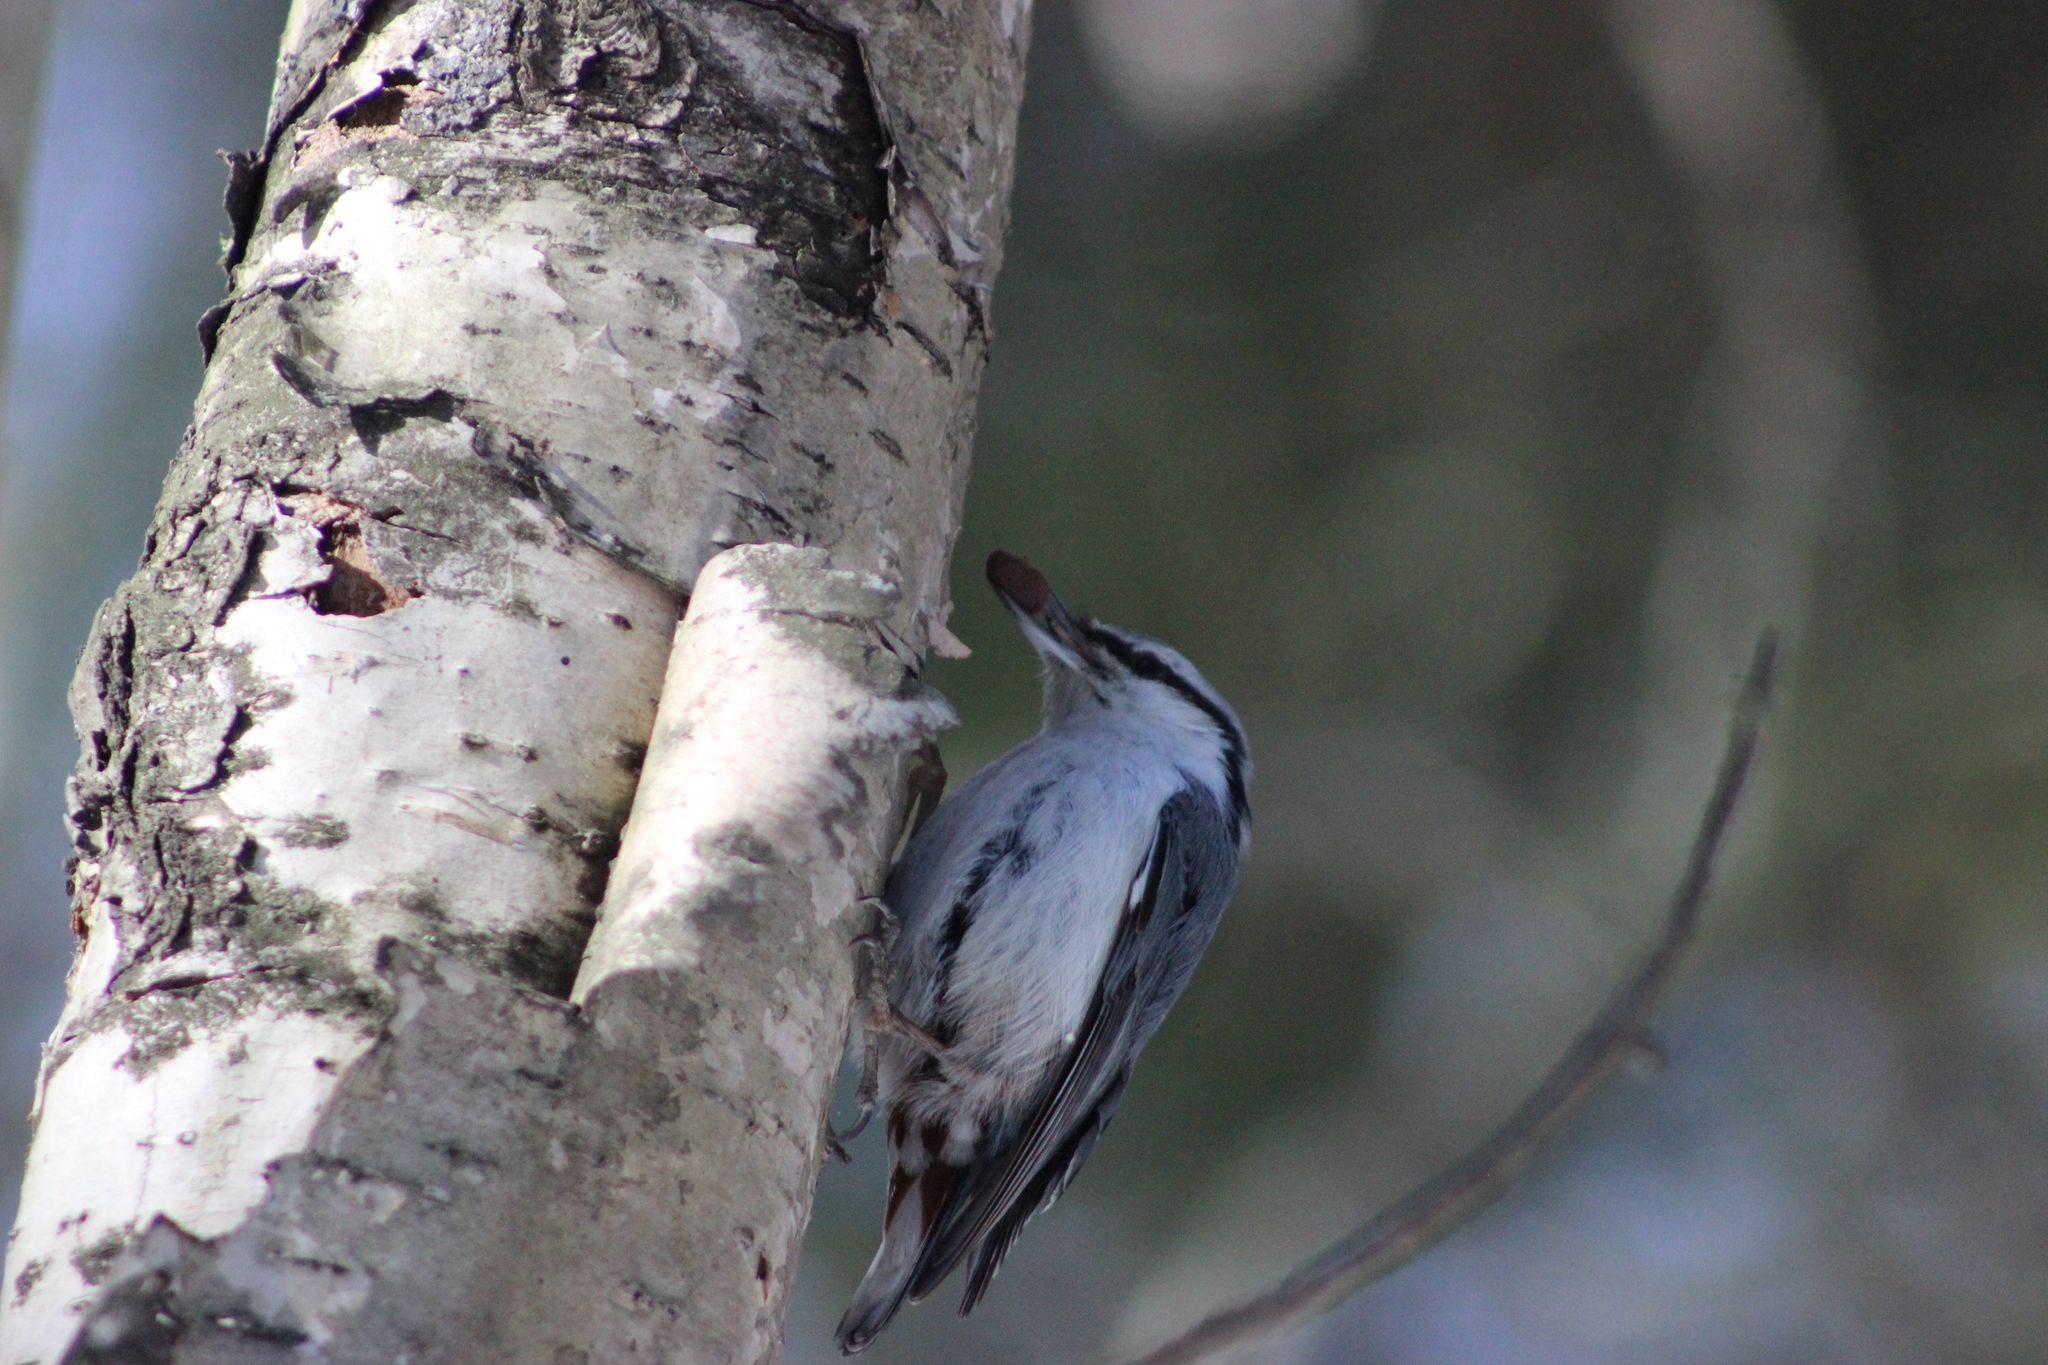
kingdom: Animalia
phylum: Chordata
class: Aves
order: Passeriformes
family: Sittidae
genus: Sitta
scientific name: Sitta europaea
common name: Eurasian nuthatch
